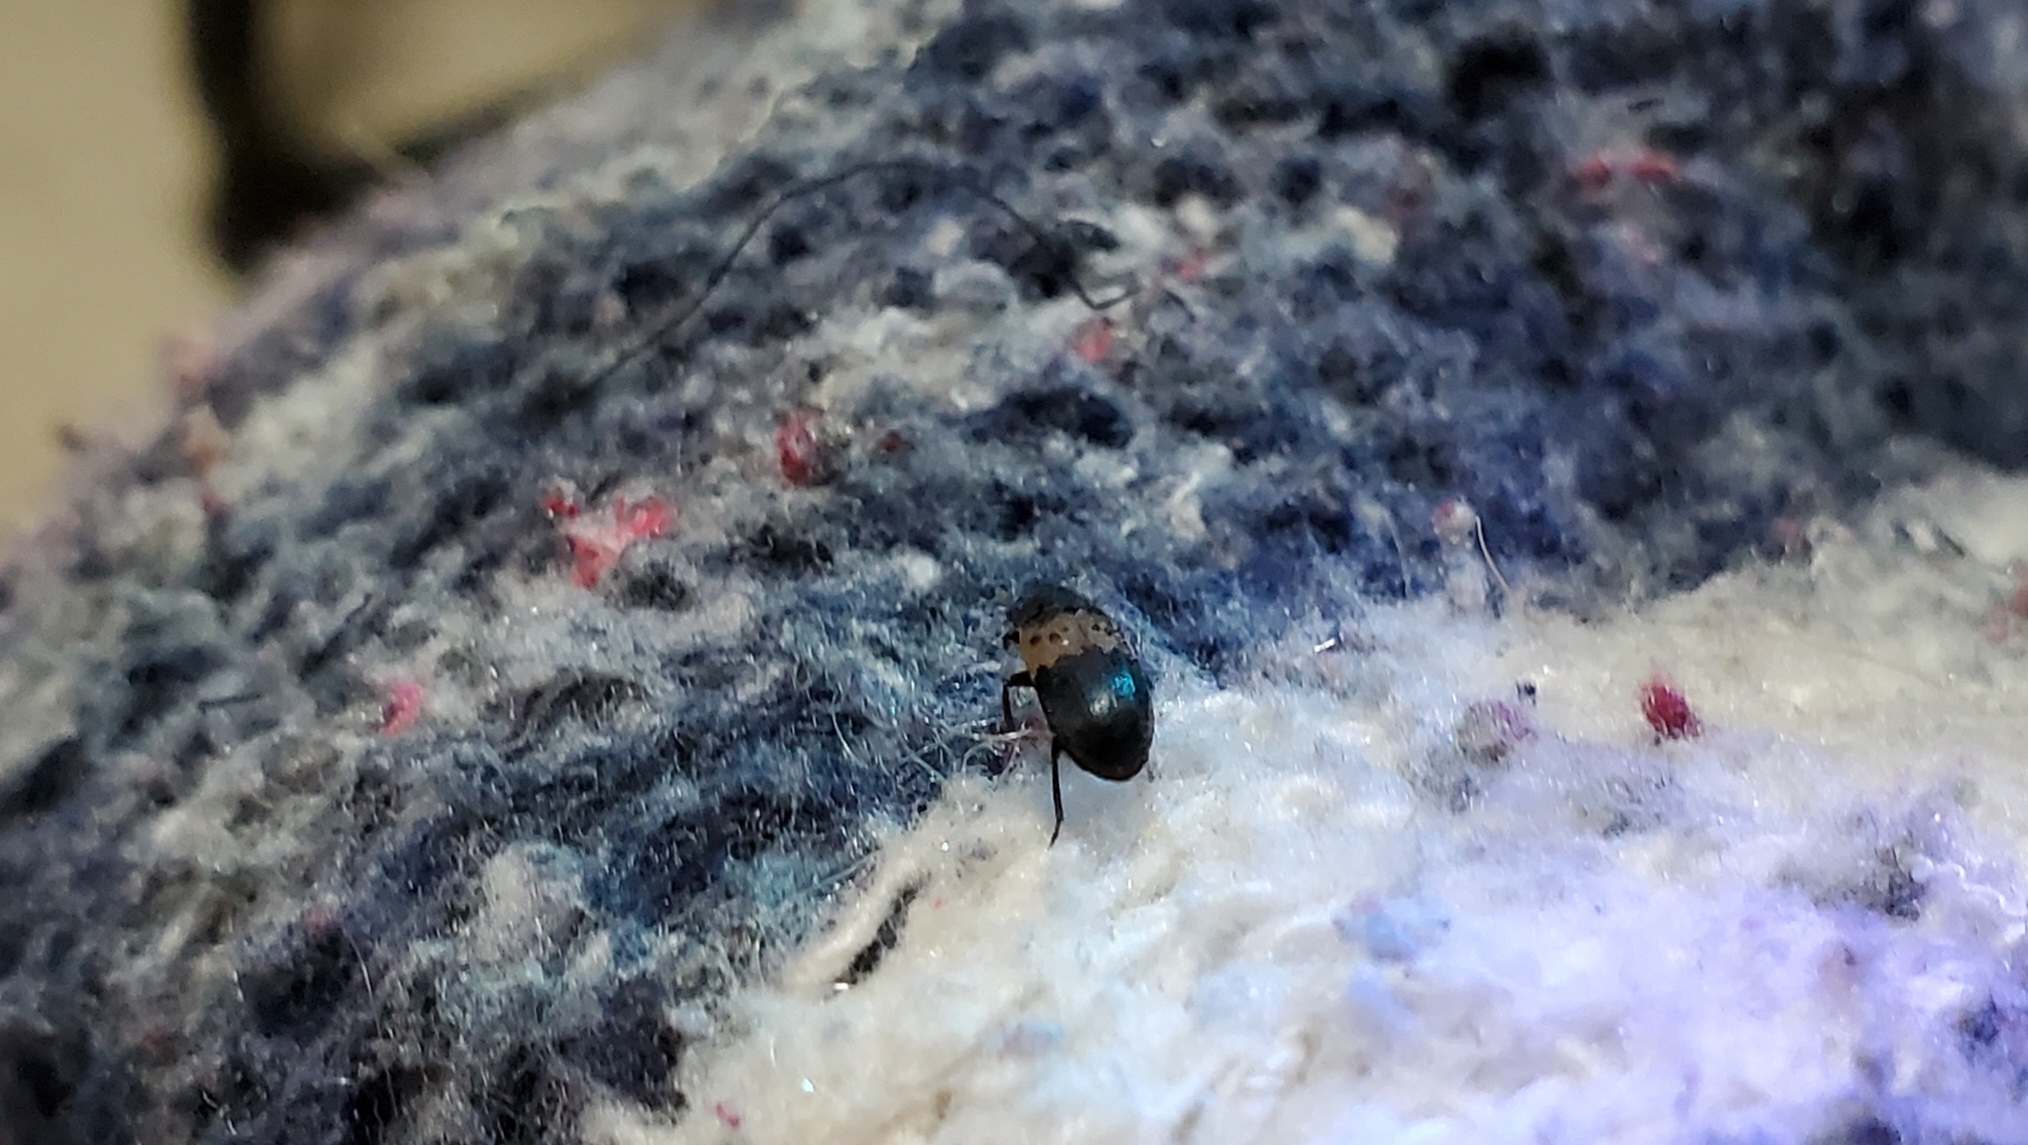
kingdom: Animalia
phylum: Arthropoda
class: Insecta
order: Coleoptera
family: Dermestidae
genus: Dermestes
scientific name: Dermestes lardarius
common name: Larder beetle
